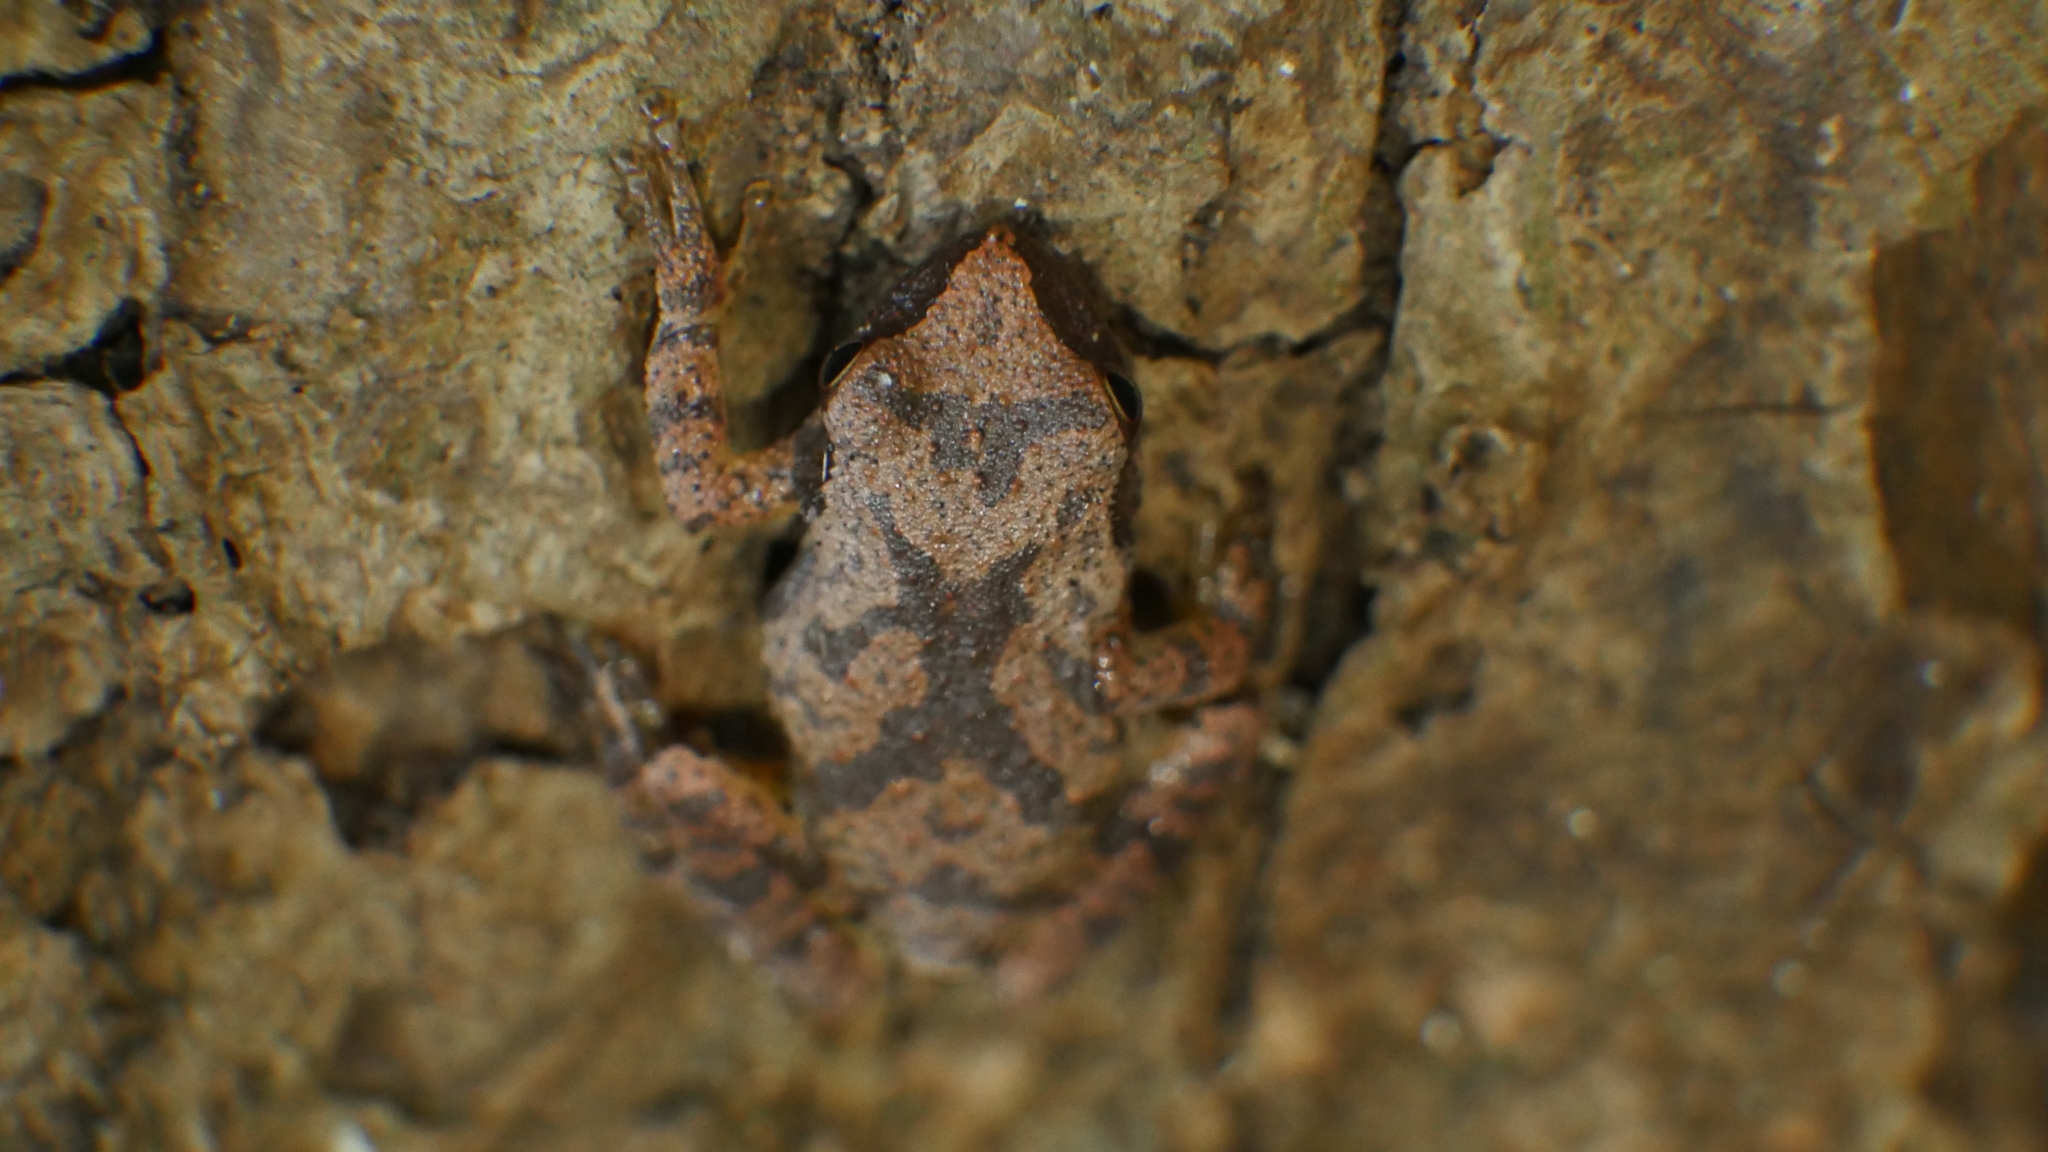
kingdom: Animalia
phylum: Chordata
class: Amphibia
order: Anura
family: Hylidae
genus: Pseudacris
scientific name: Pseudacris crucifer
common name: Spring peeper
